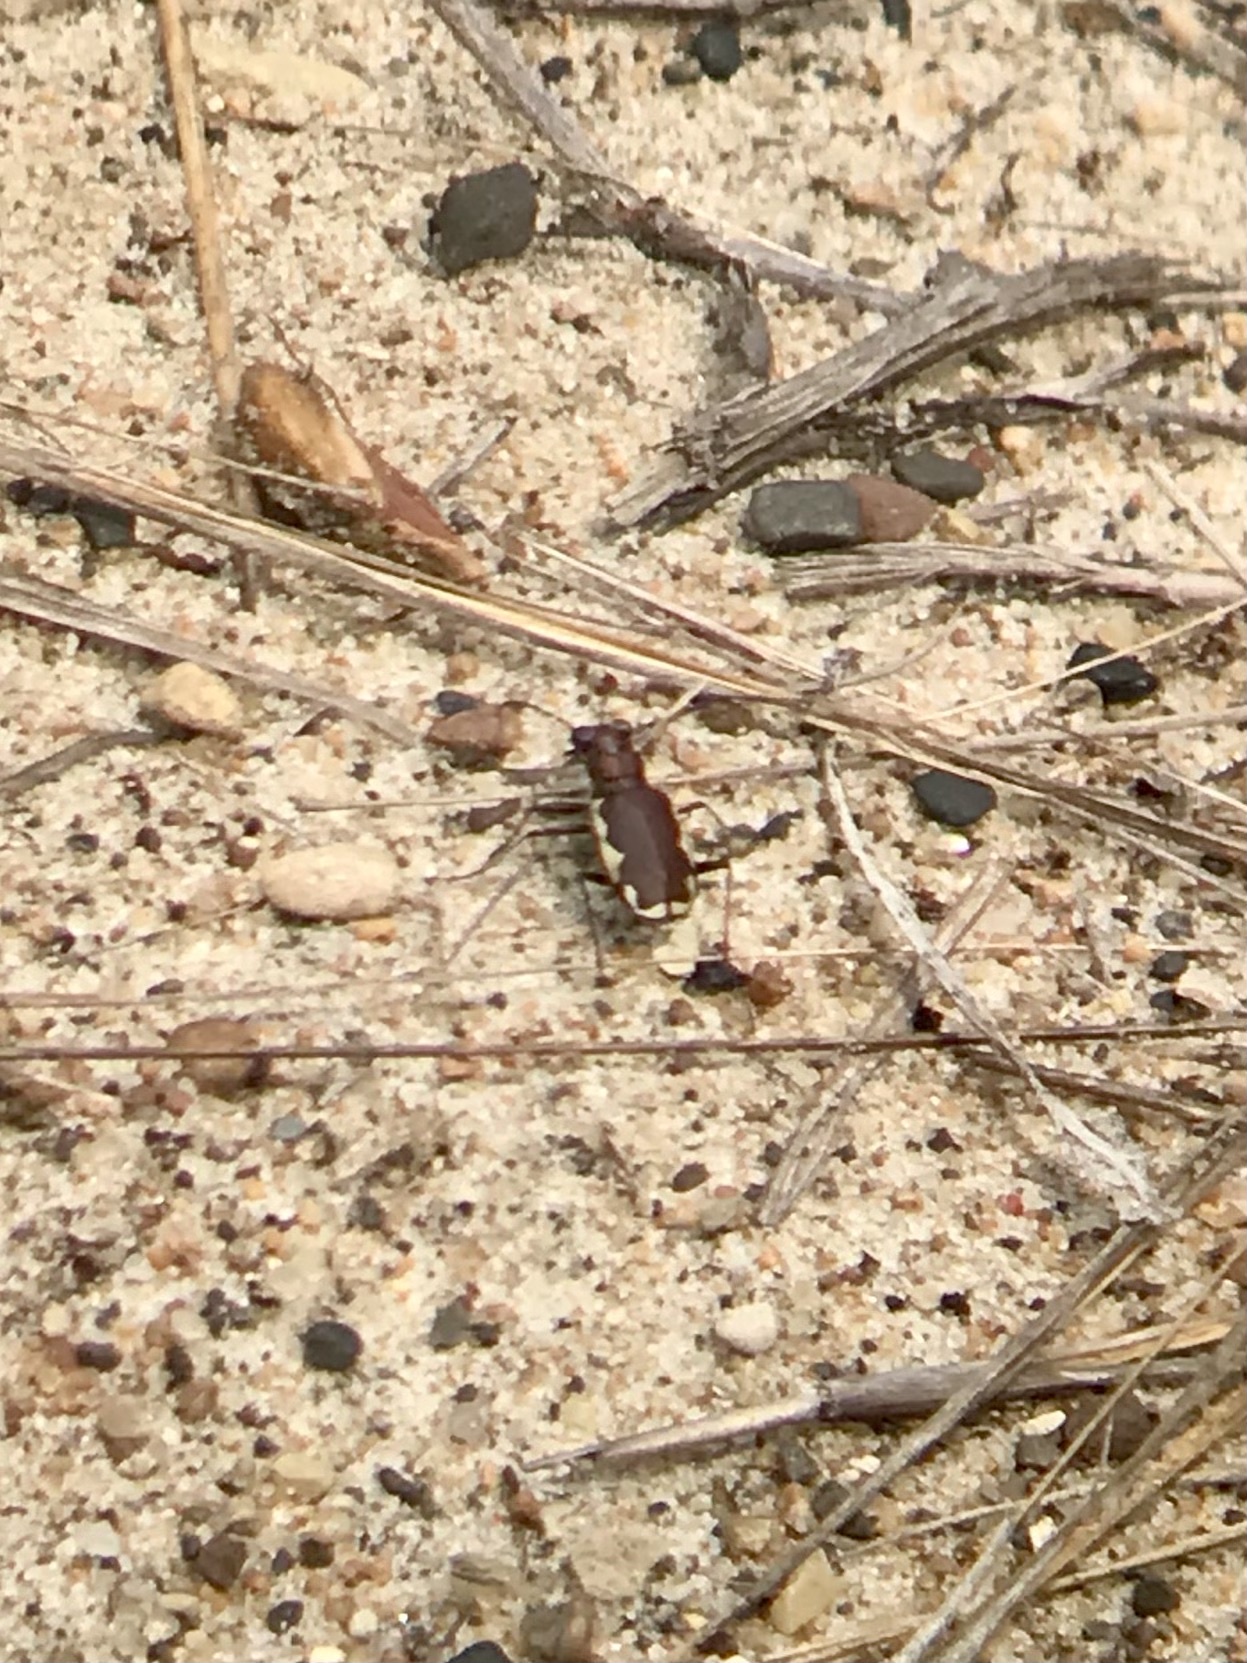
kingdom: Animalia
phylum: Arthropoda
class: Insecta
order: Coleoptera
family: Carabidae
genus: Cicindela
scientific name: Cicindela scutellaris
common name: Festive tiger beetle
